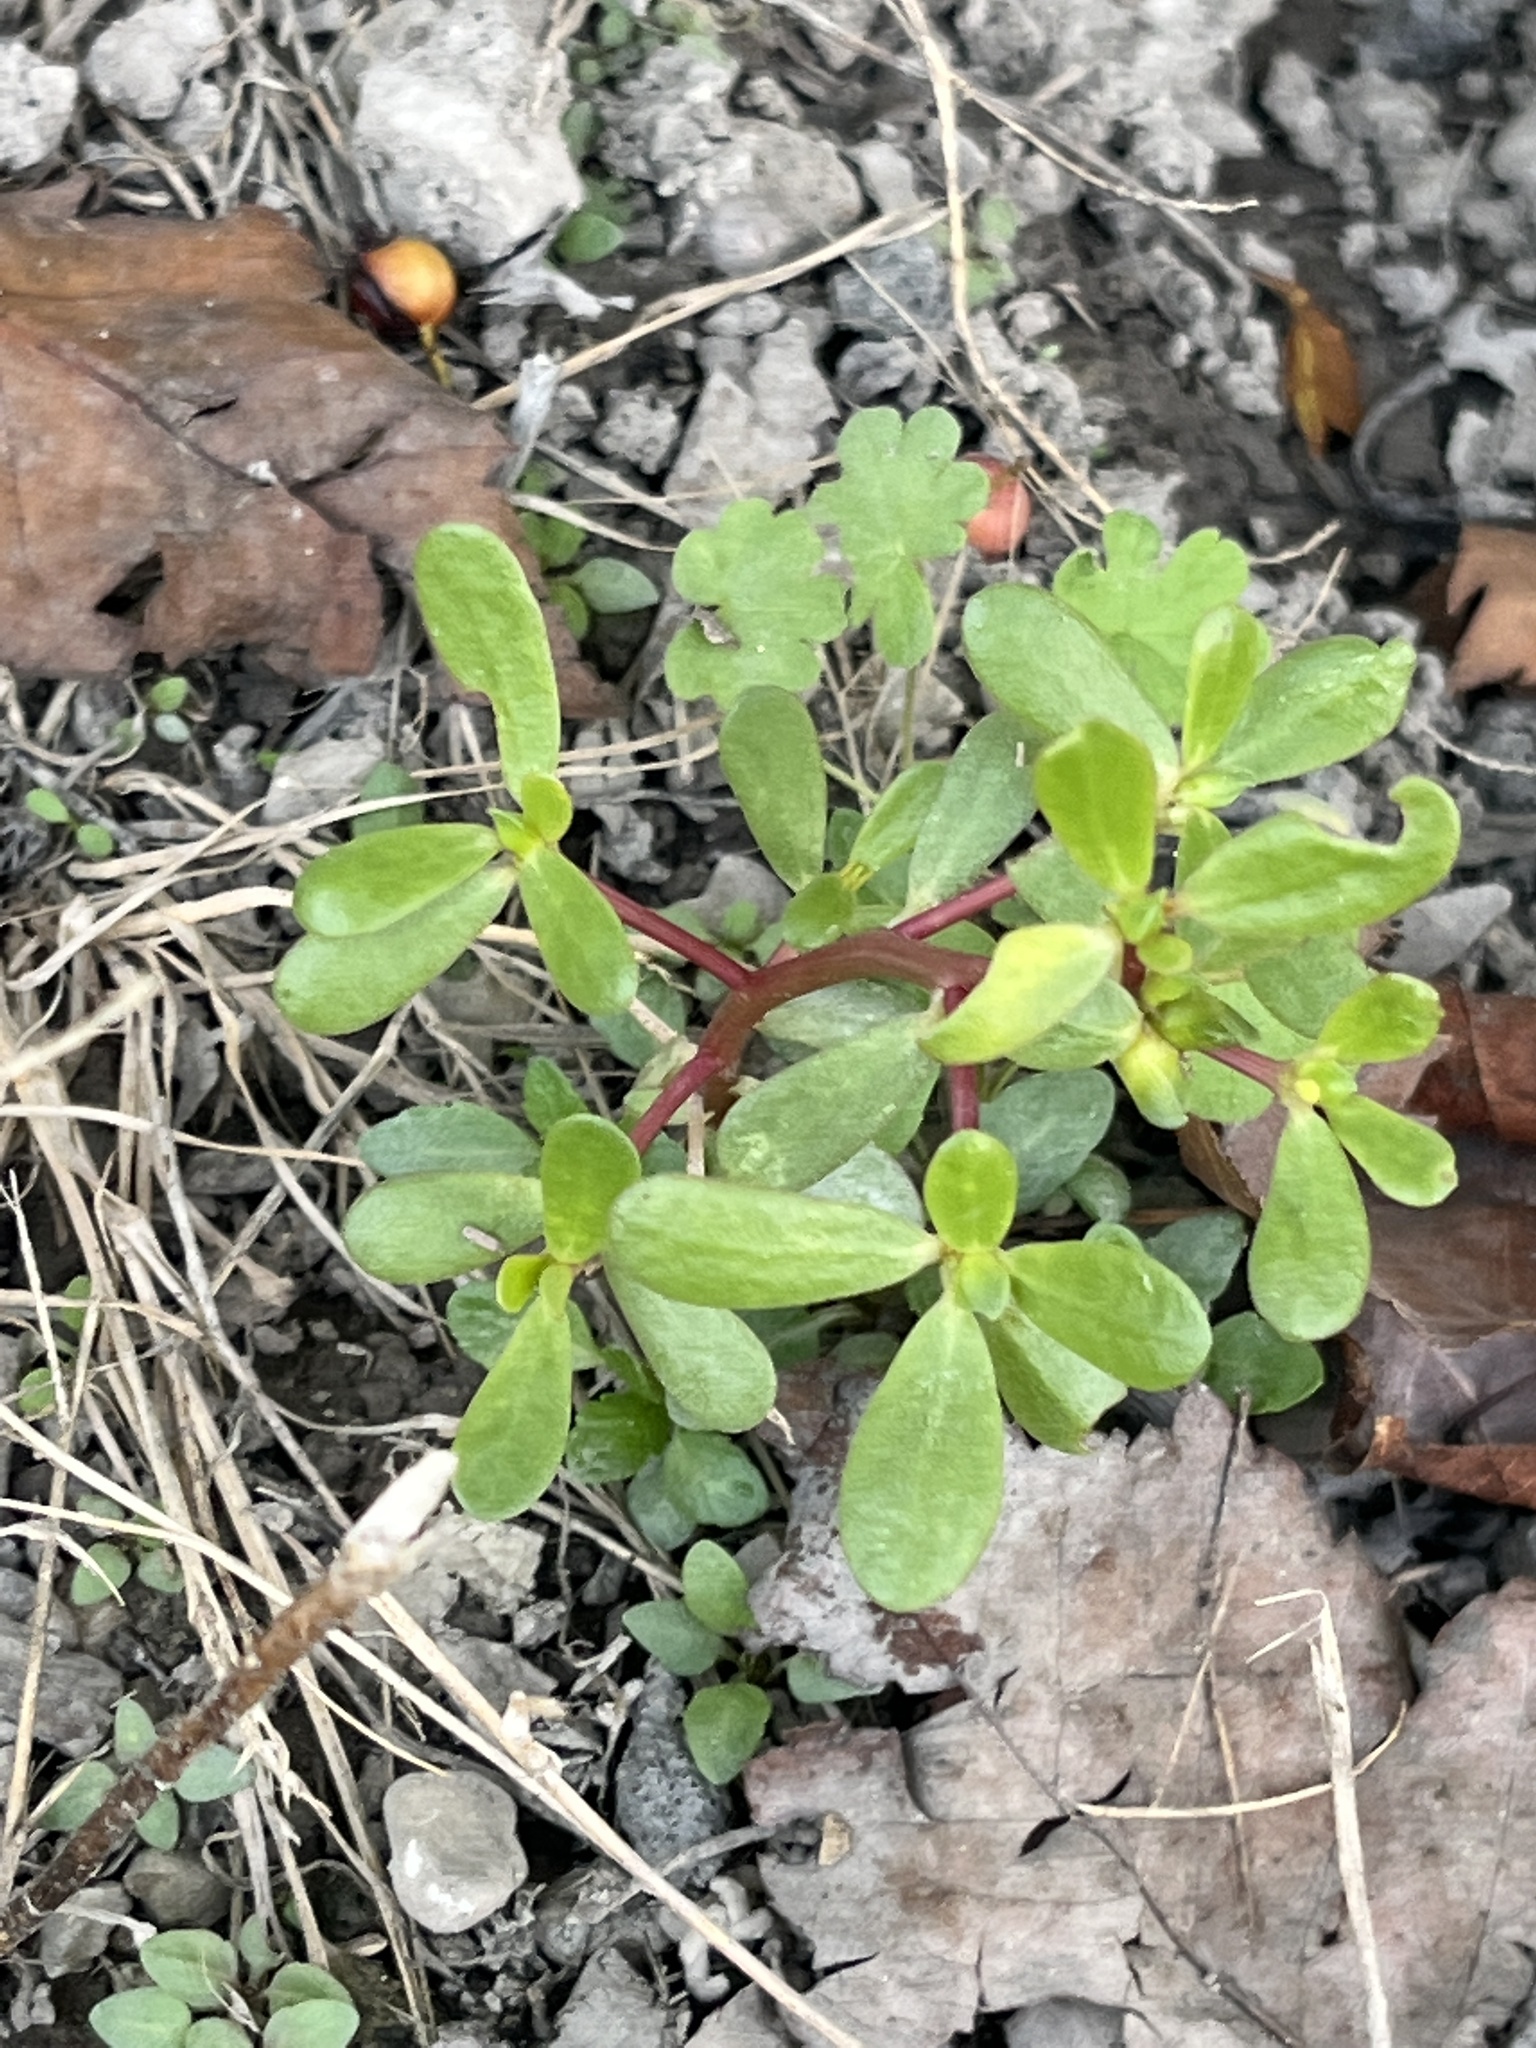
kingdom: Plantae
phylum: Tracheophyta
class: Magnoliopsida
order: Caryophyllales
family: Portulacaceae
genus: Portulaca
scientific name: Portulaca oleracea
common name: Common purslane
